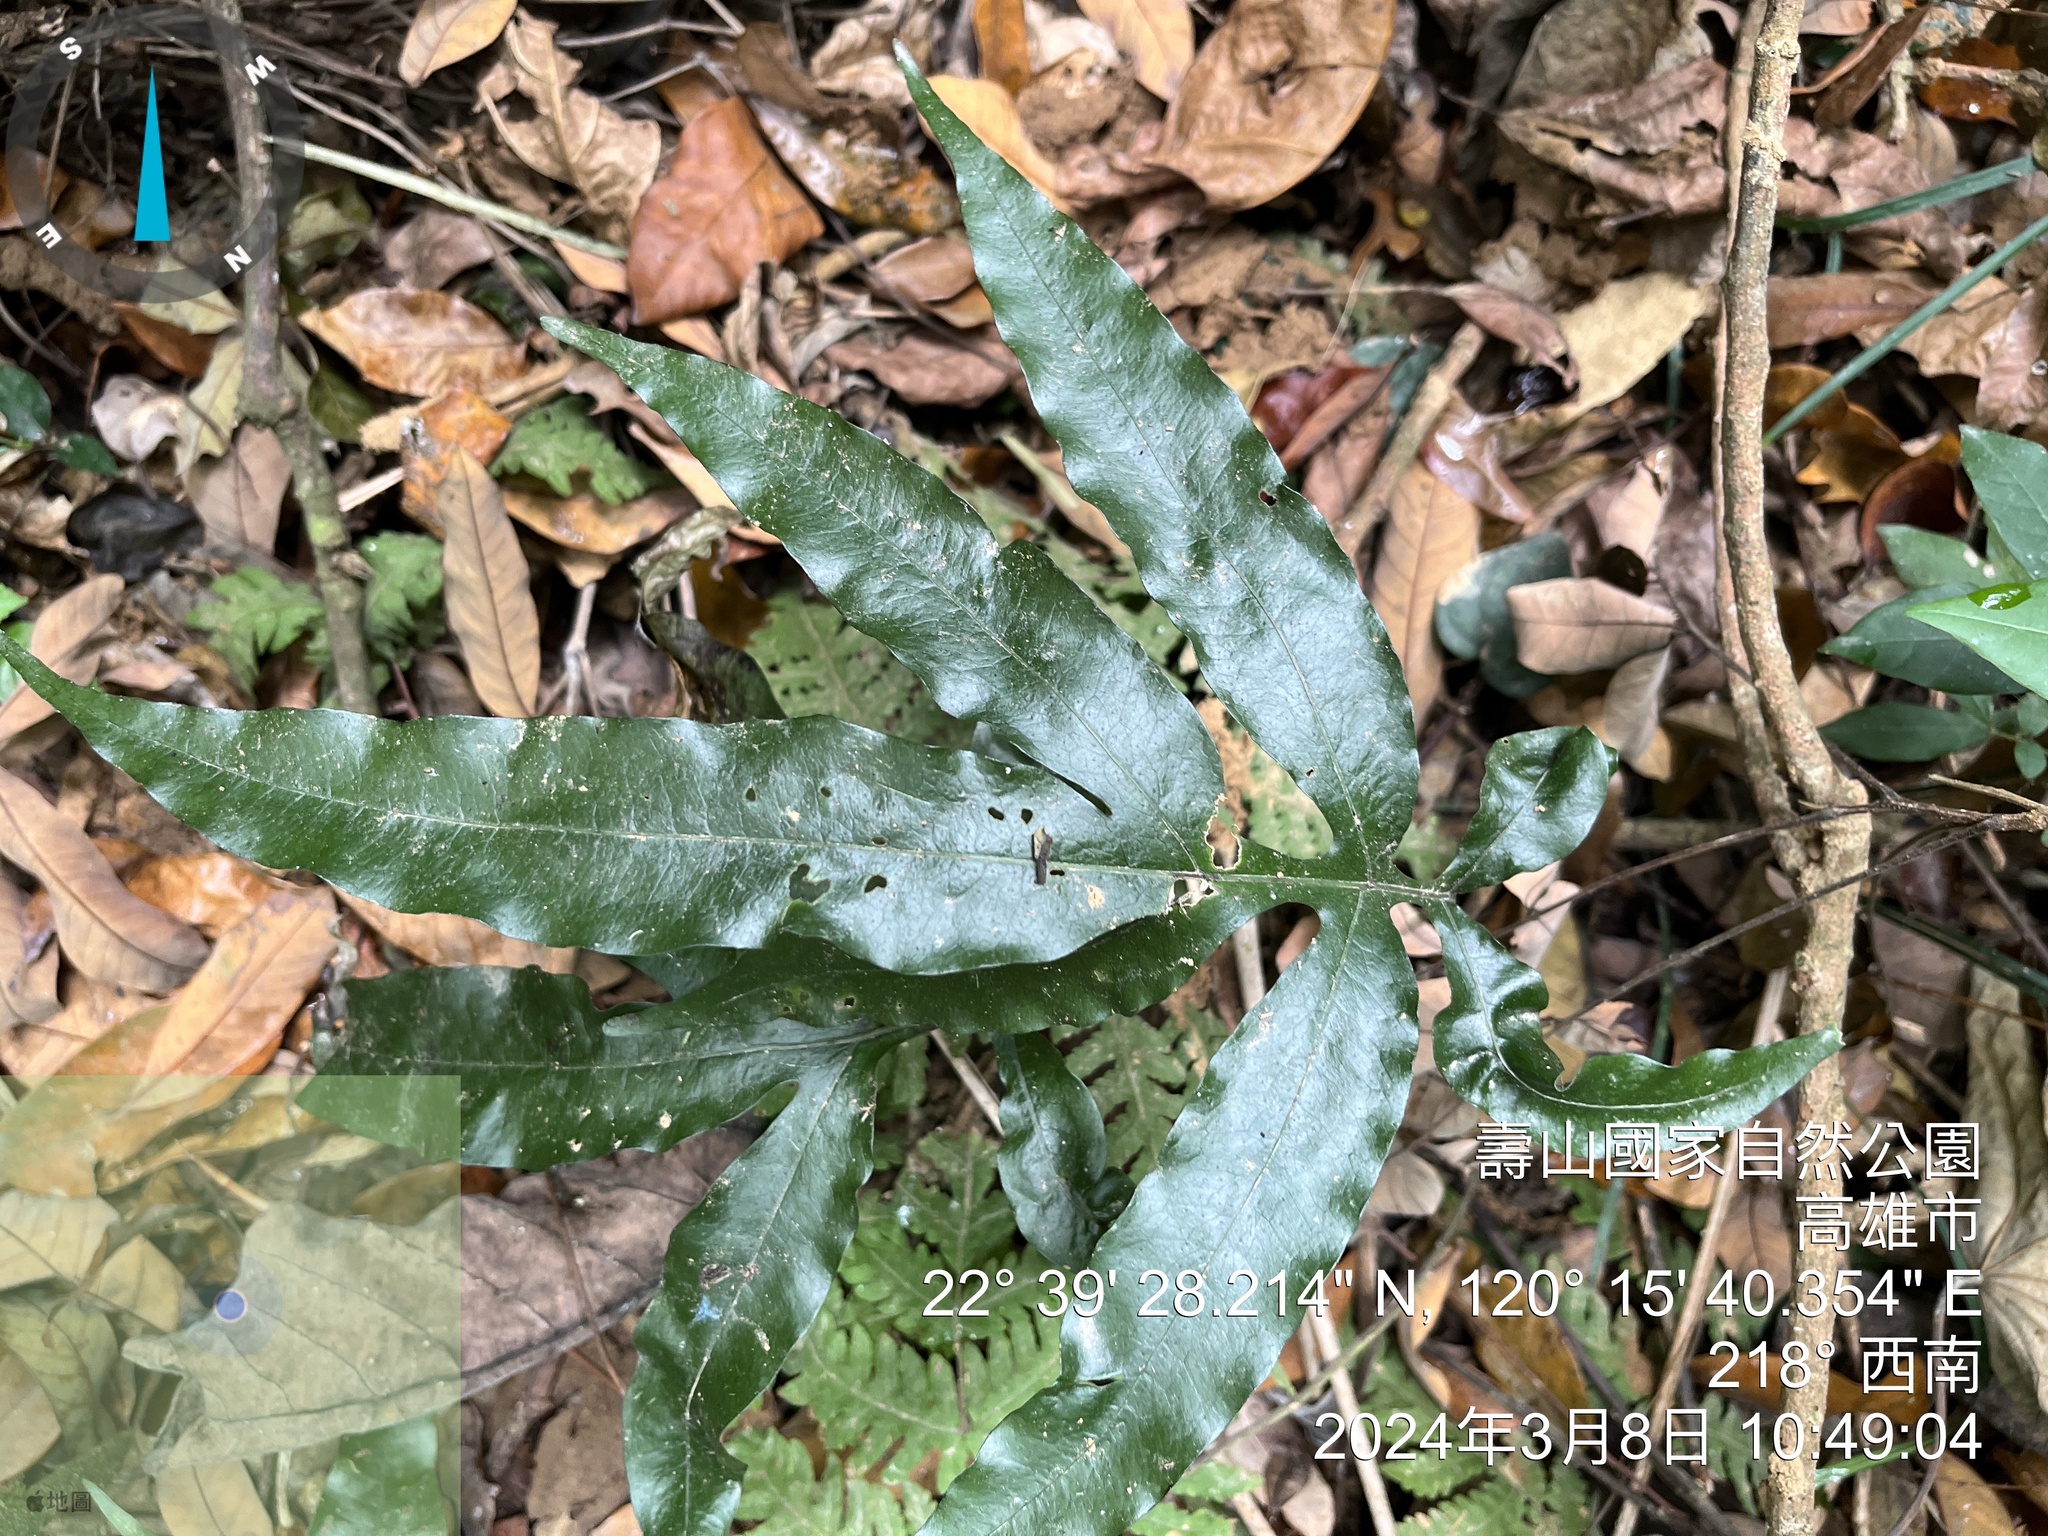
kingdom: Plantae
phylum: Tracheophyta
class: Polypodiopsida
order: Polypodiales
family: Polypodiaceae
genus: Leptochilus
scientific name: Leptochilus ellipticus
